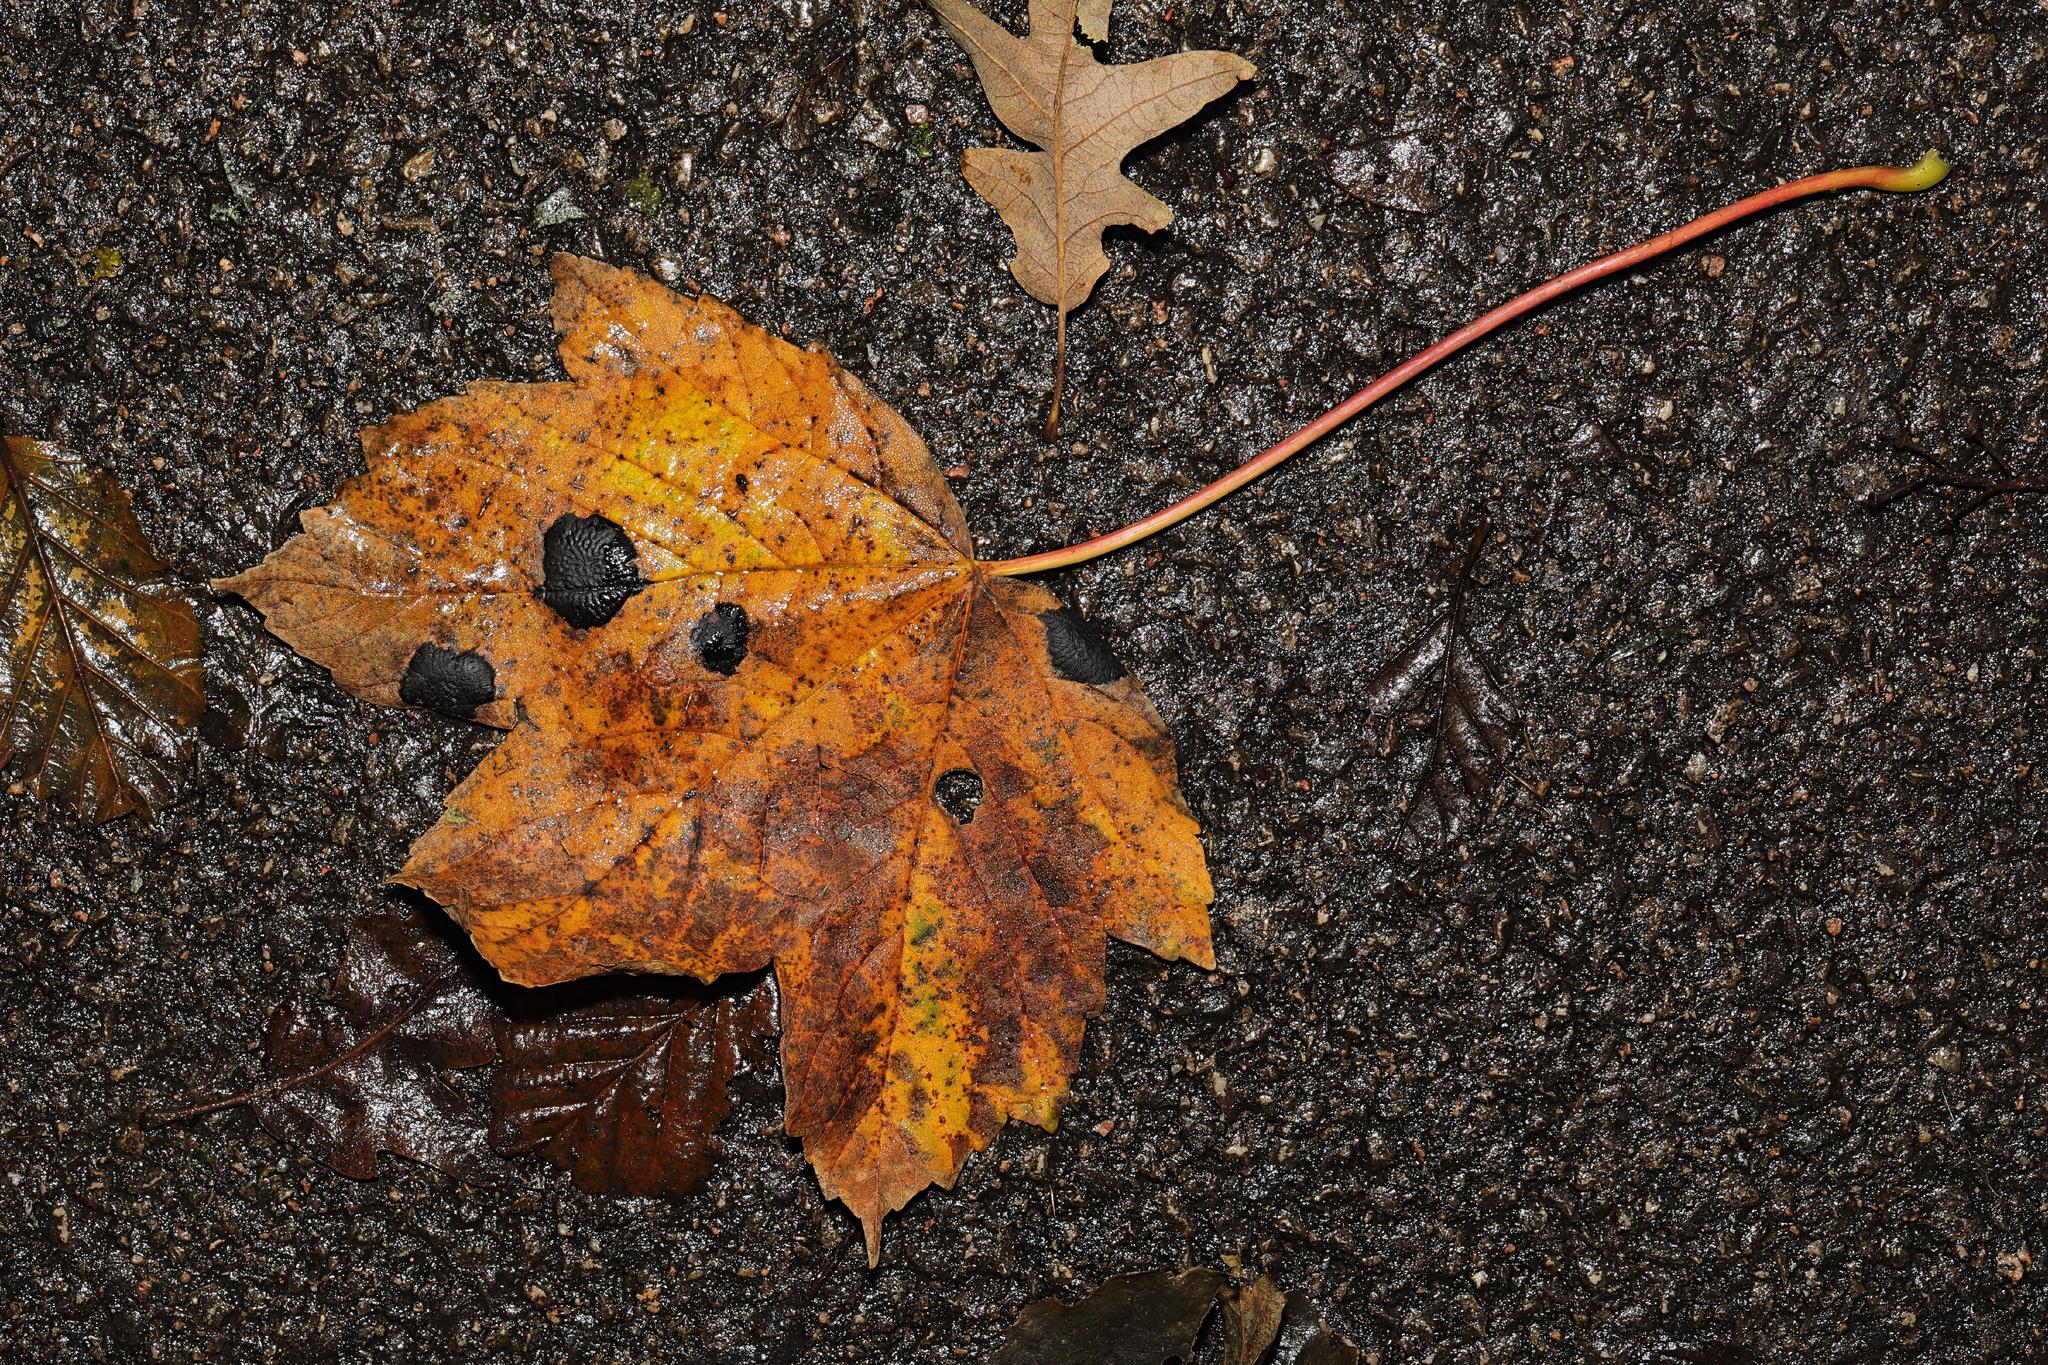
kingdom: Plantae
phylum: Tracheophyta
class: Magnoliopsida
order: Sapindales
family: Sapindaceae
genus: Acer
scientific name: Acer pseudoplatanus
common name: Sycamore
